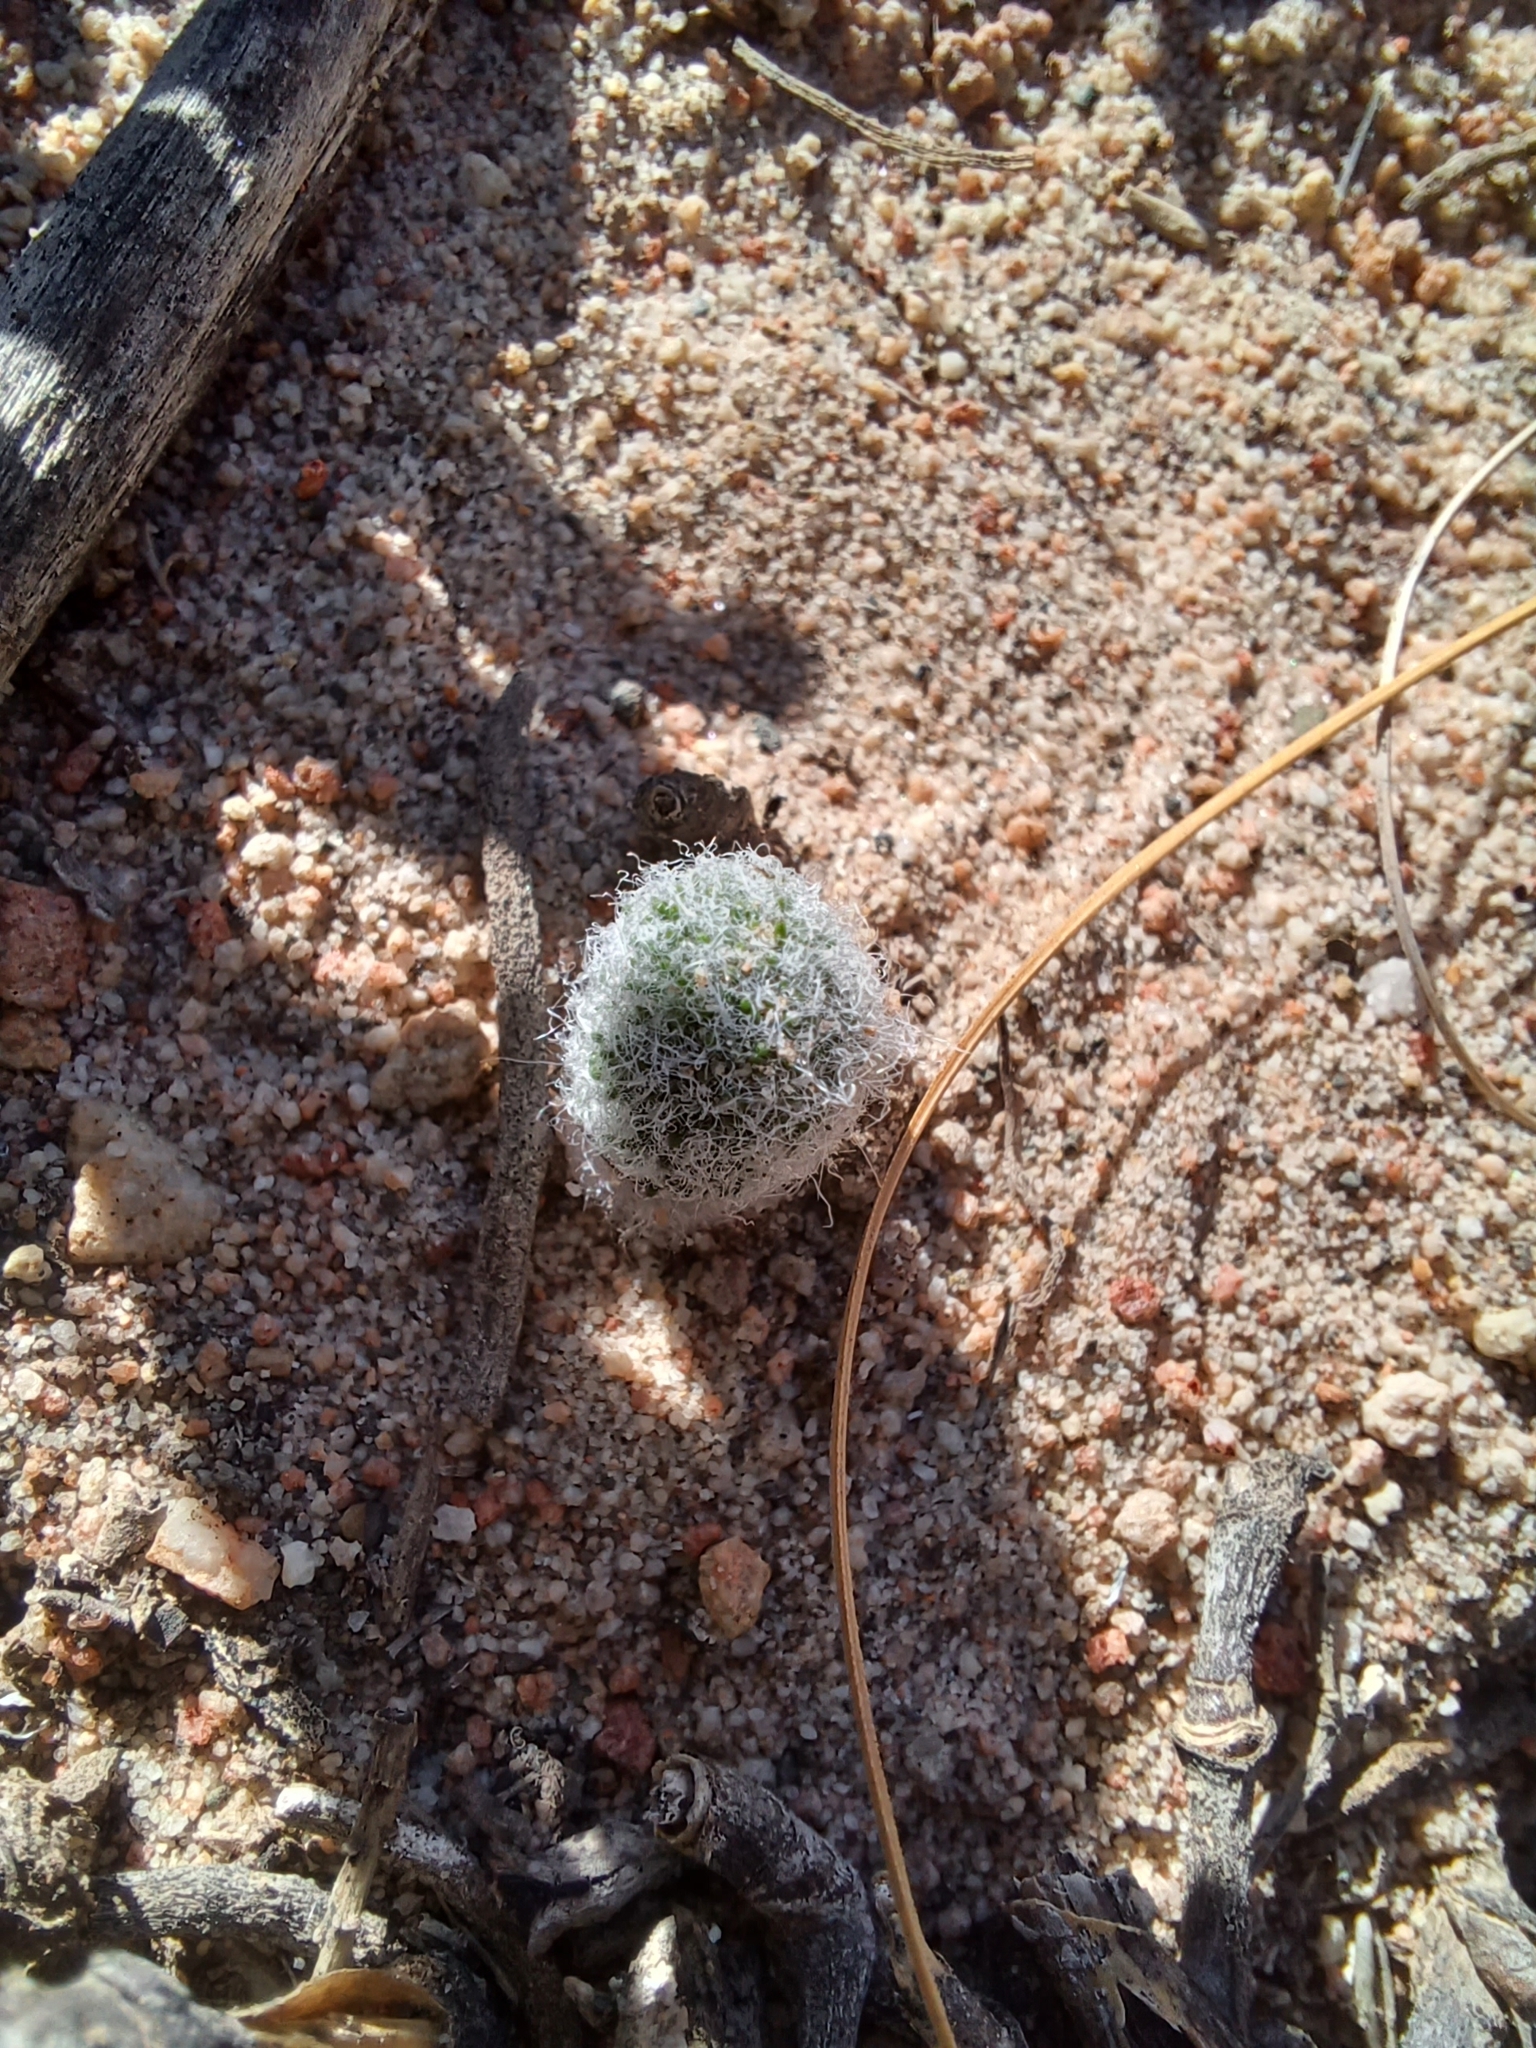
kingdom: Plantae
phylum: Tracheophyta
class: Liliopsida
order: Asparagales
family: Asparagaceae
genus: Eriospermum
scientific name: Eriospermum paradoxum
